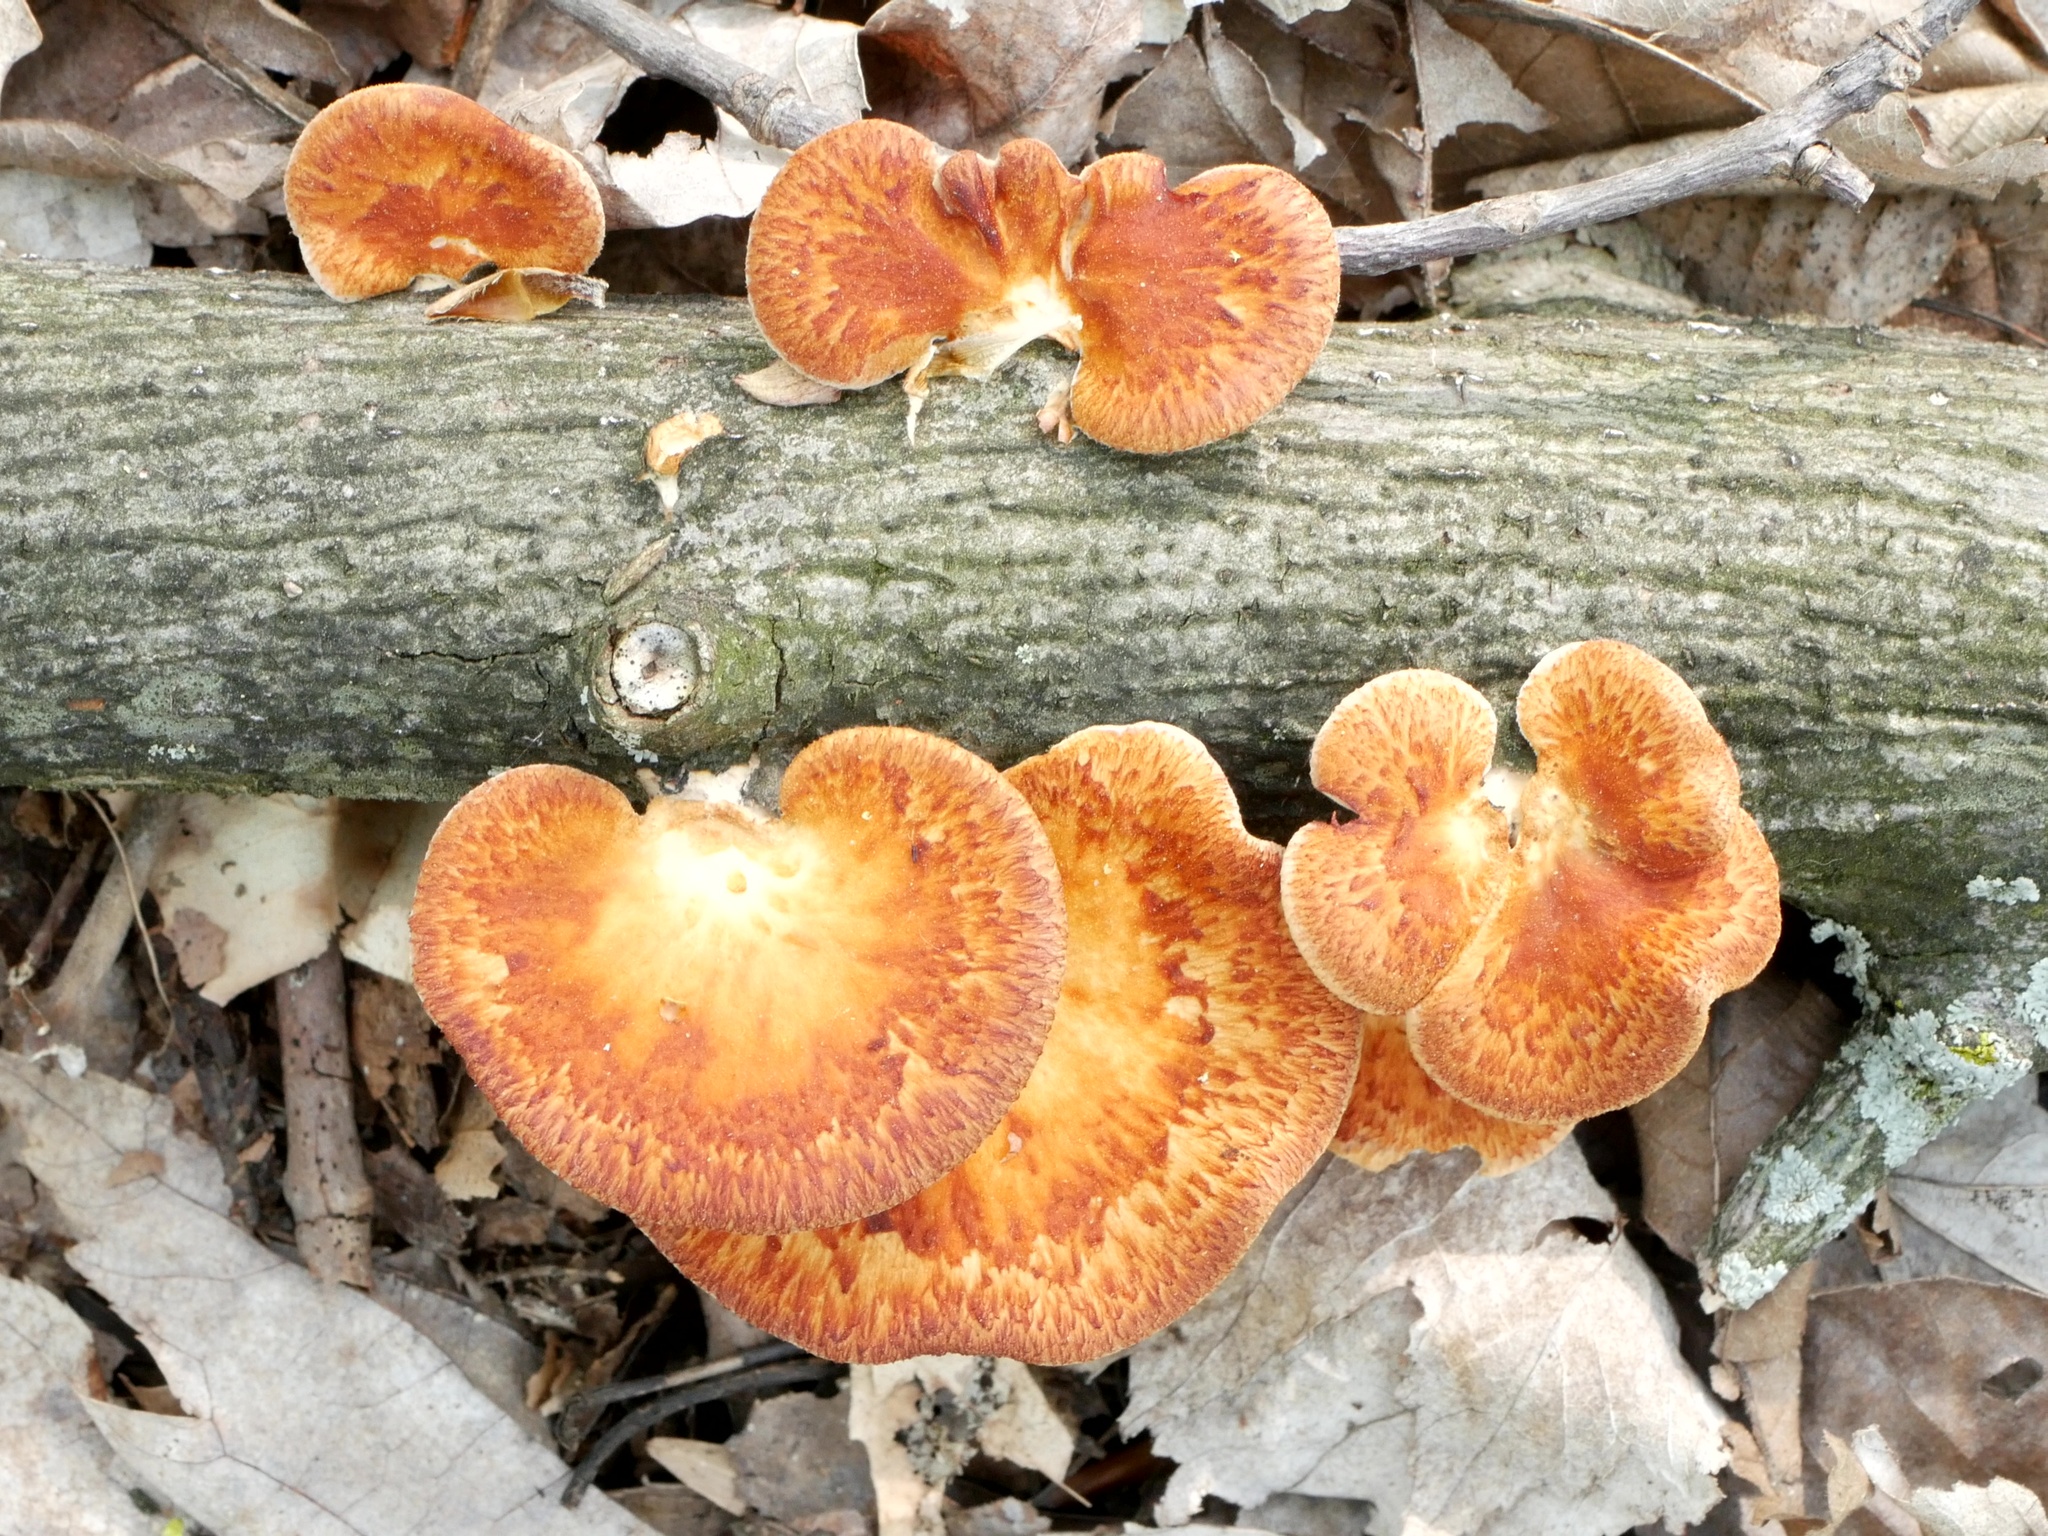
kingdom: Fungi
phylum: Basidiomycota
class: Agaricomycetes
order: Polyporales
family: Polyporaceae
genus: Neofavolus
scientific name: Neofavolus alveolaris
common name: Hexagonal-pored polypore
